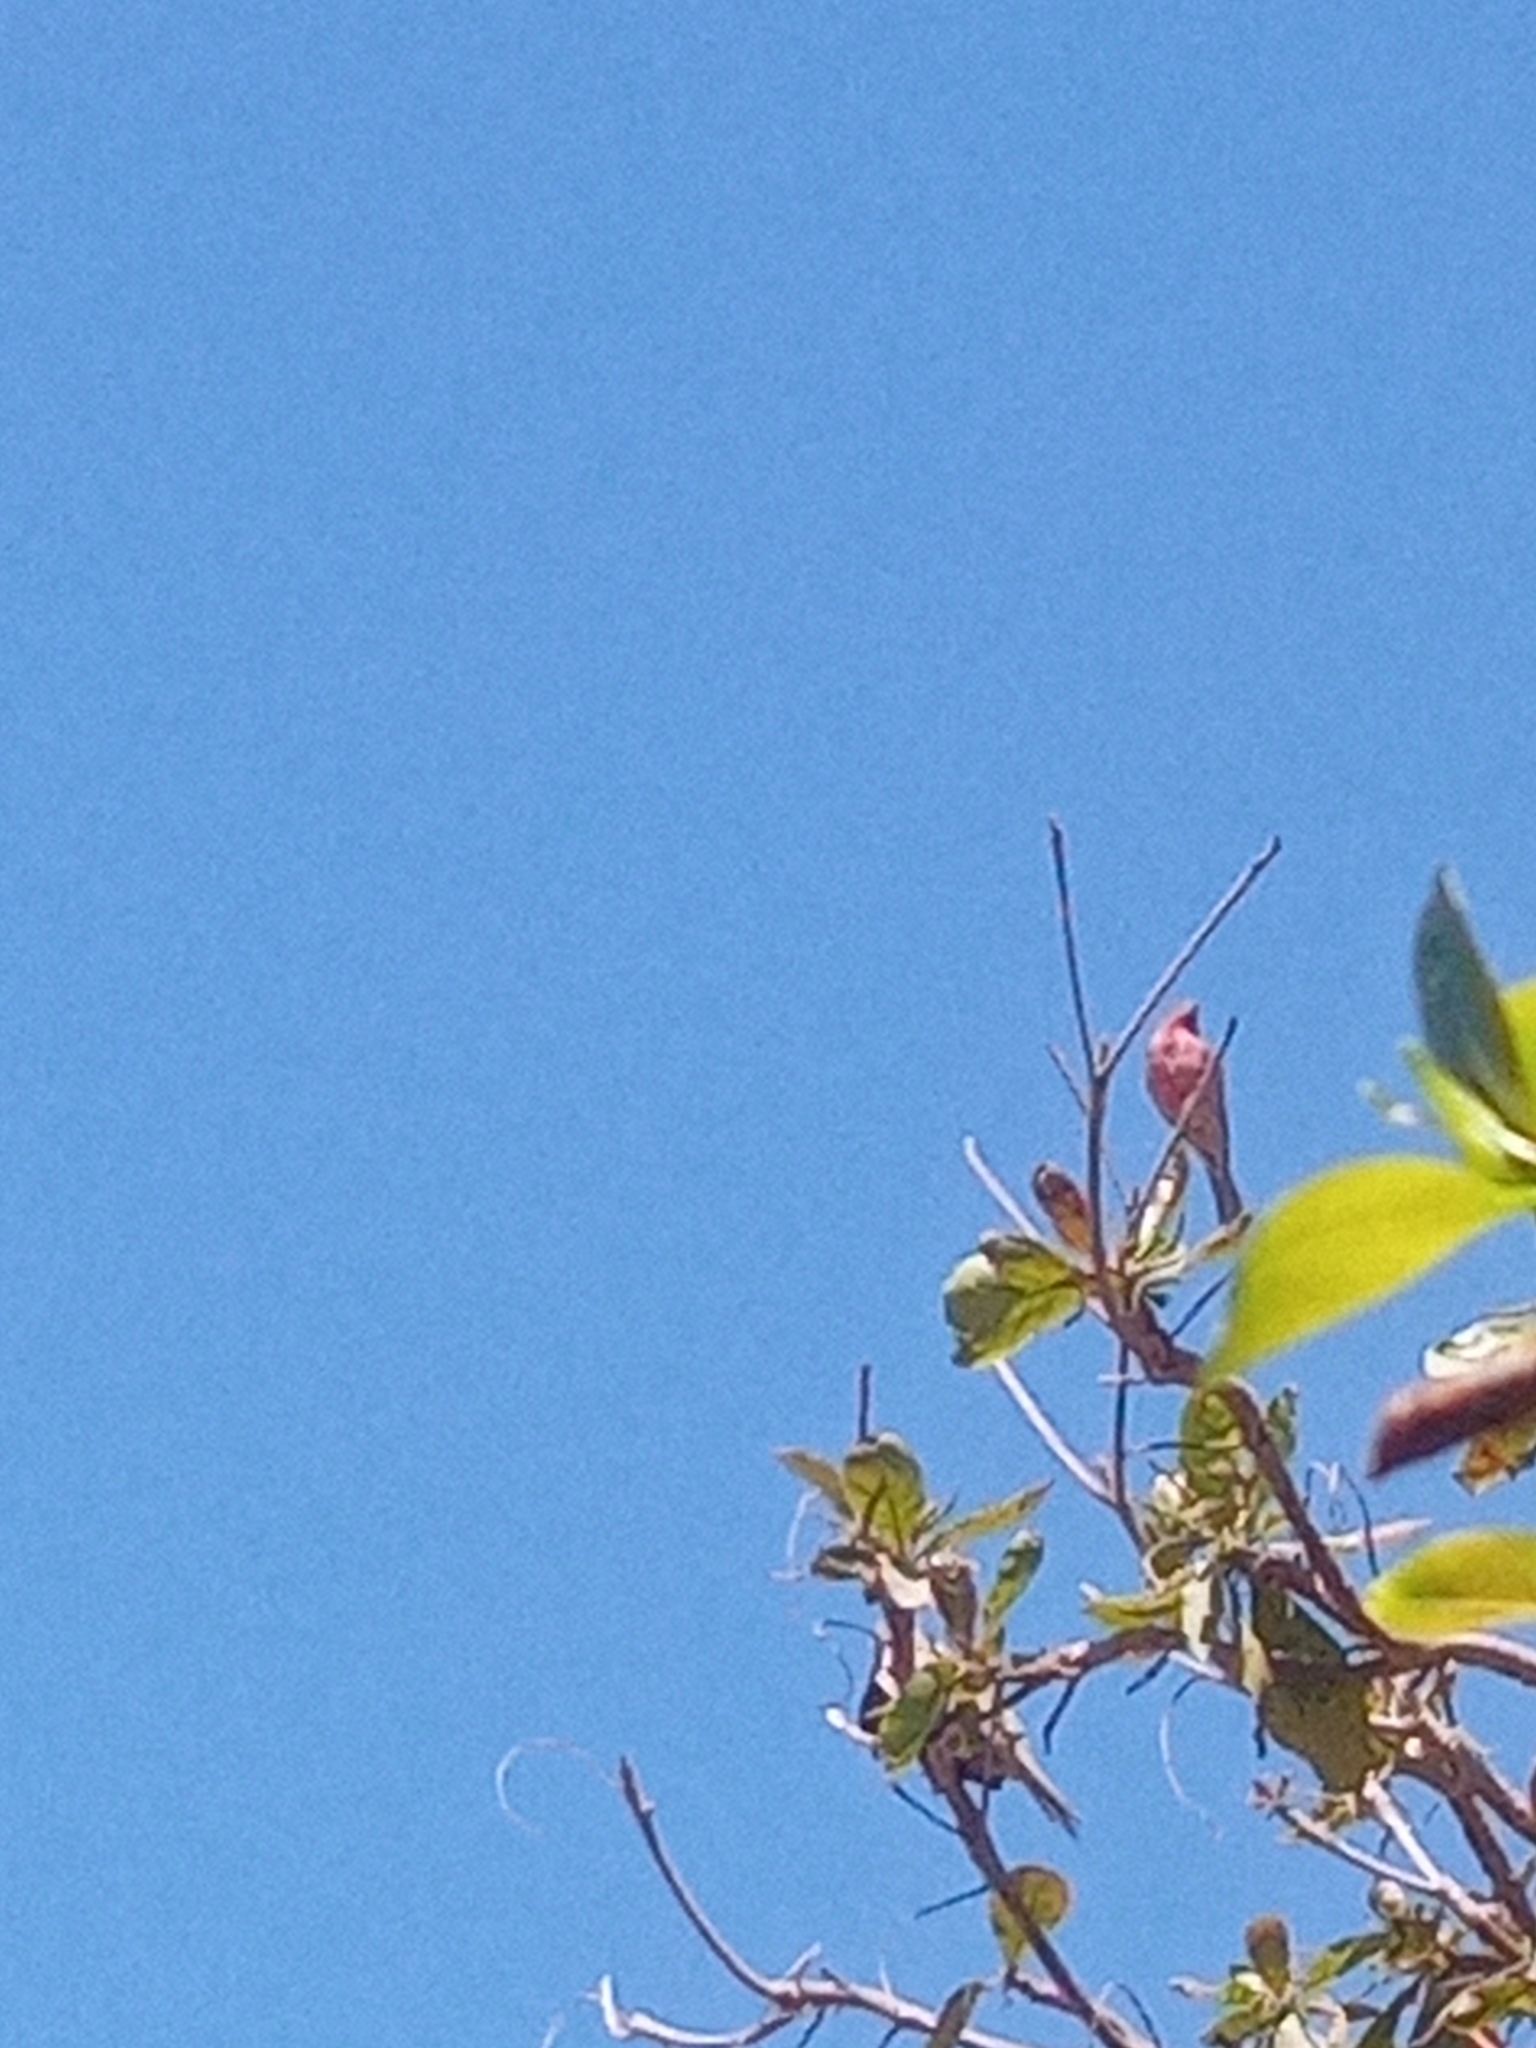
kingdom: Animalia
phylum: Chordata
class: Aves
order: Passeriformes
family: Fringillidae
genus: Haemorhous
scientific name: Haemorhous mexicanus
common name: House finch
